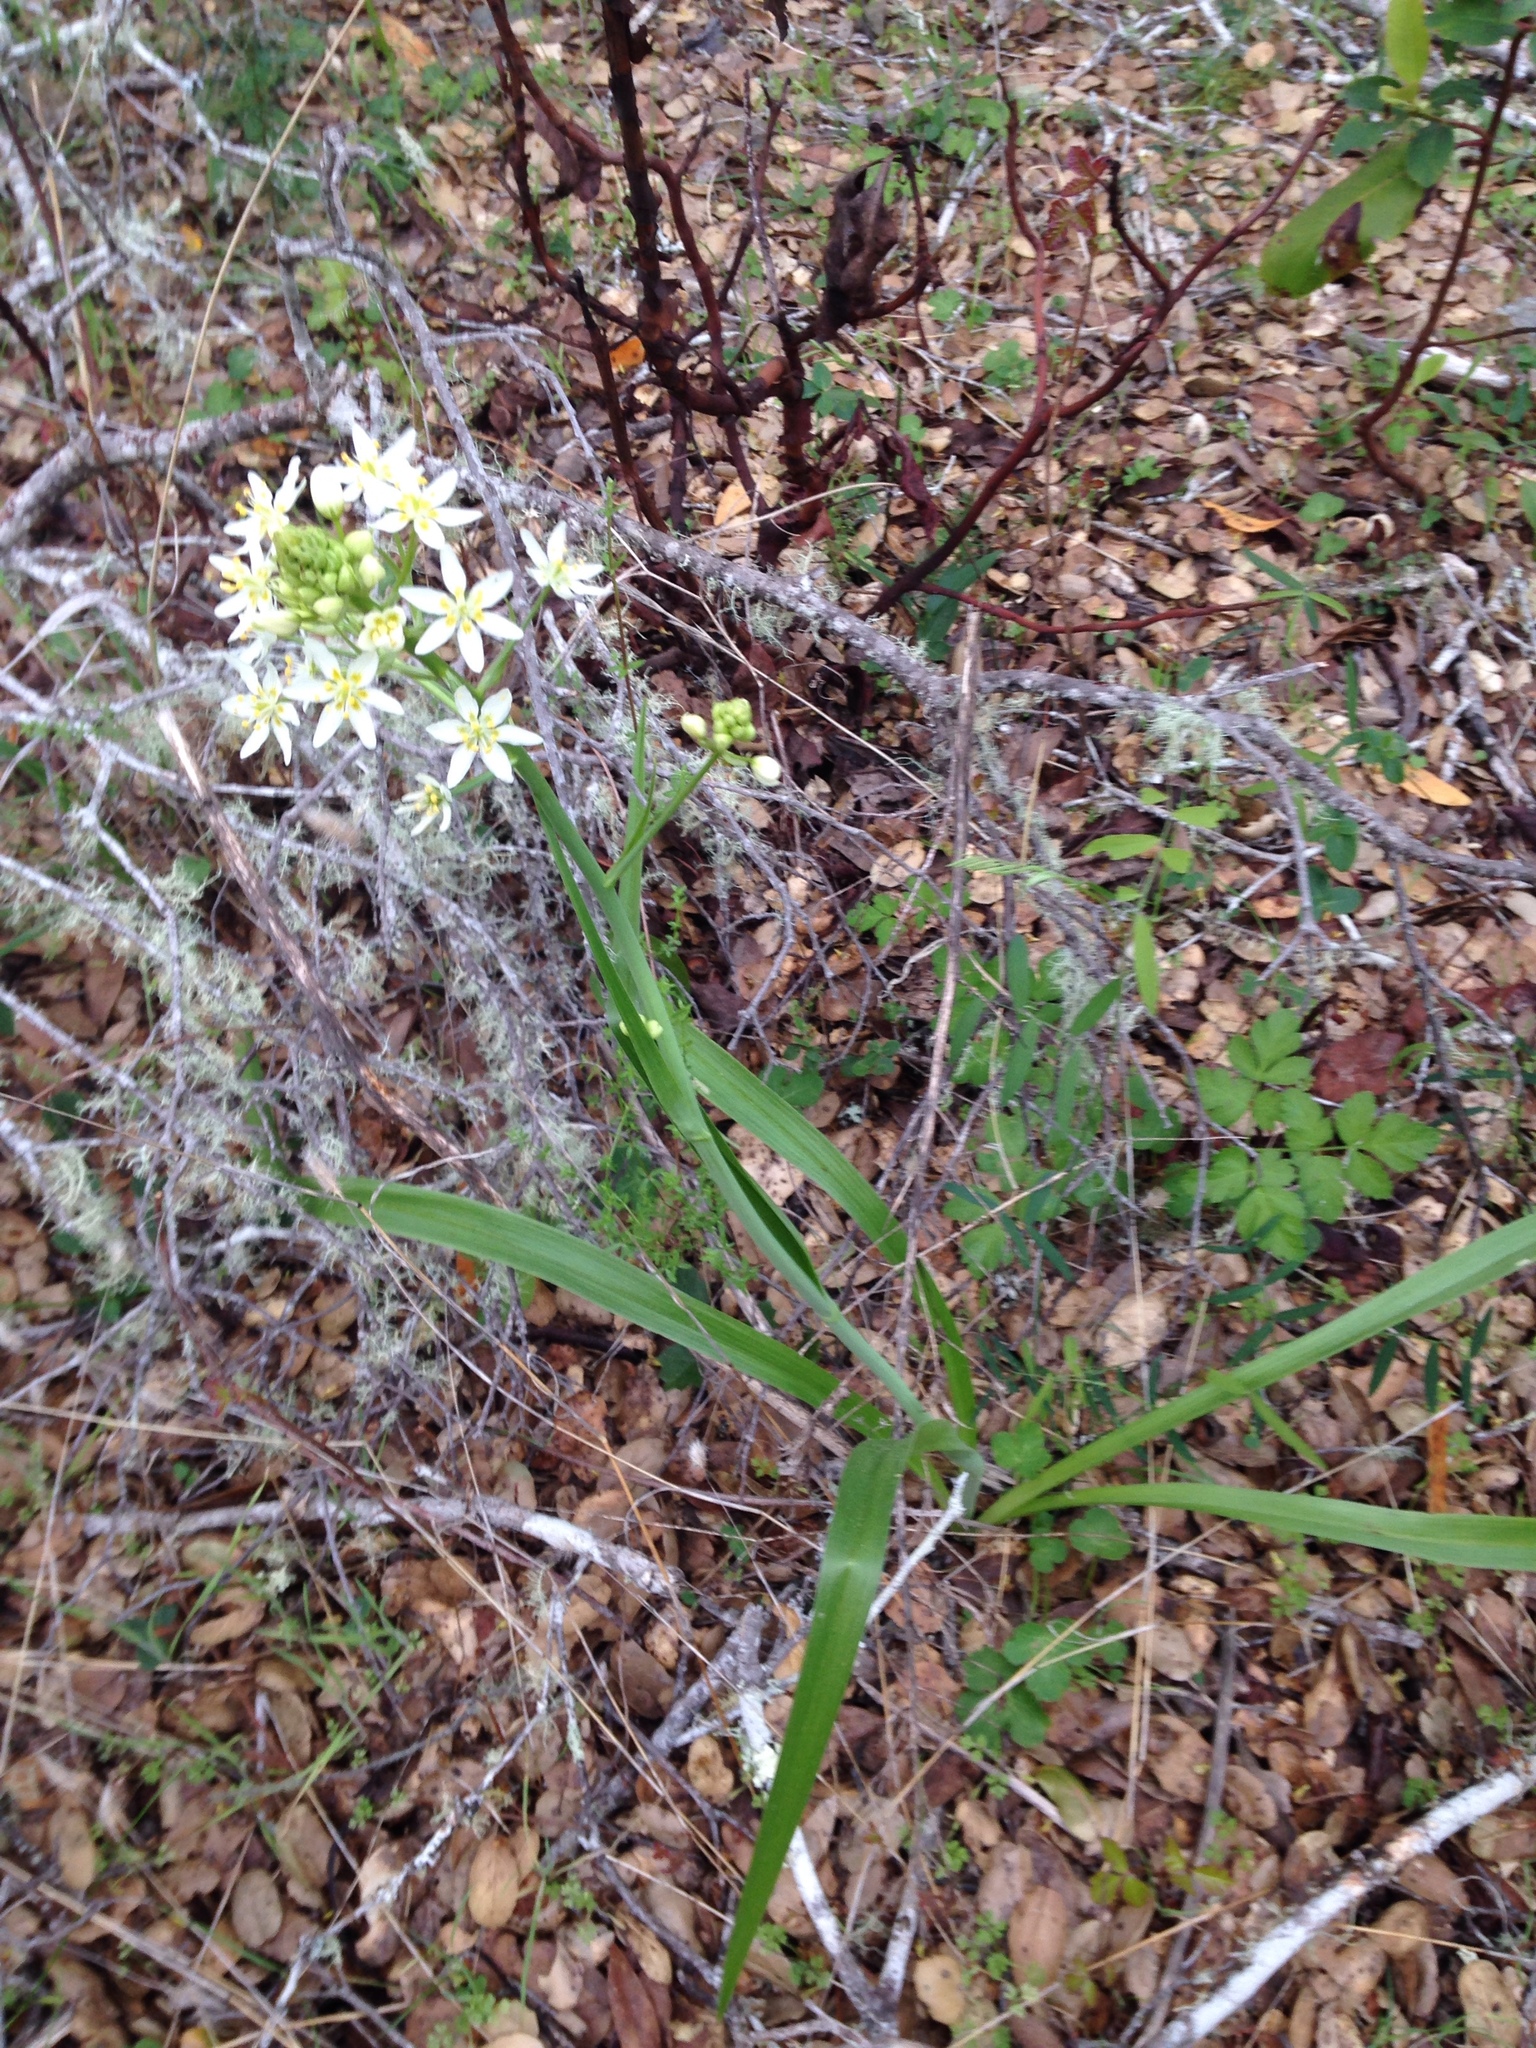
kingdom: Plantae
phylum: Tracheophyta
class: Liliopsida
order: Liliales
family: Melanthiaceae
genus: Toxicoscordion
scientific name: Toxicoscordion fremontii
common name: Fremont's death camas
